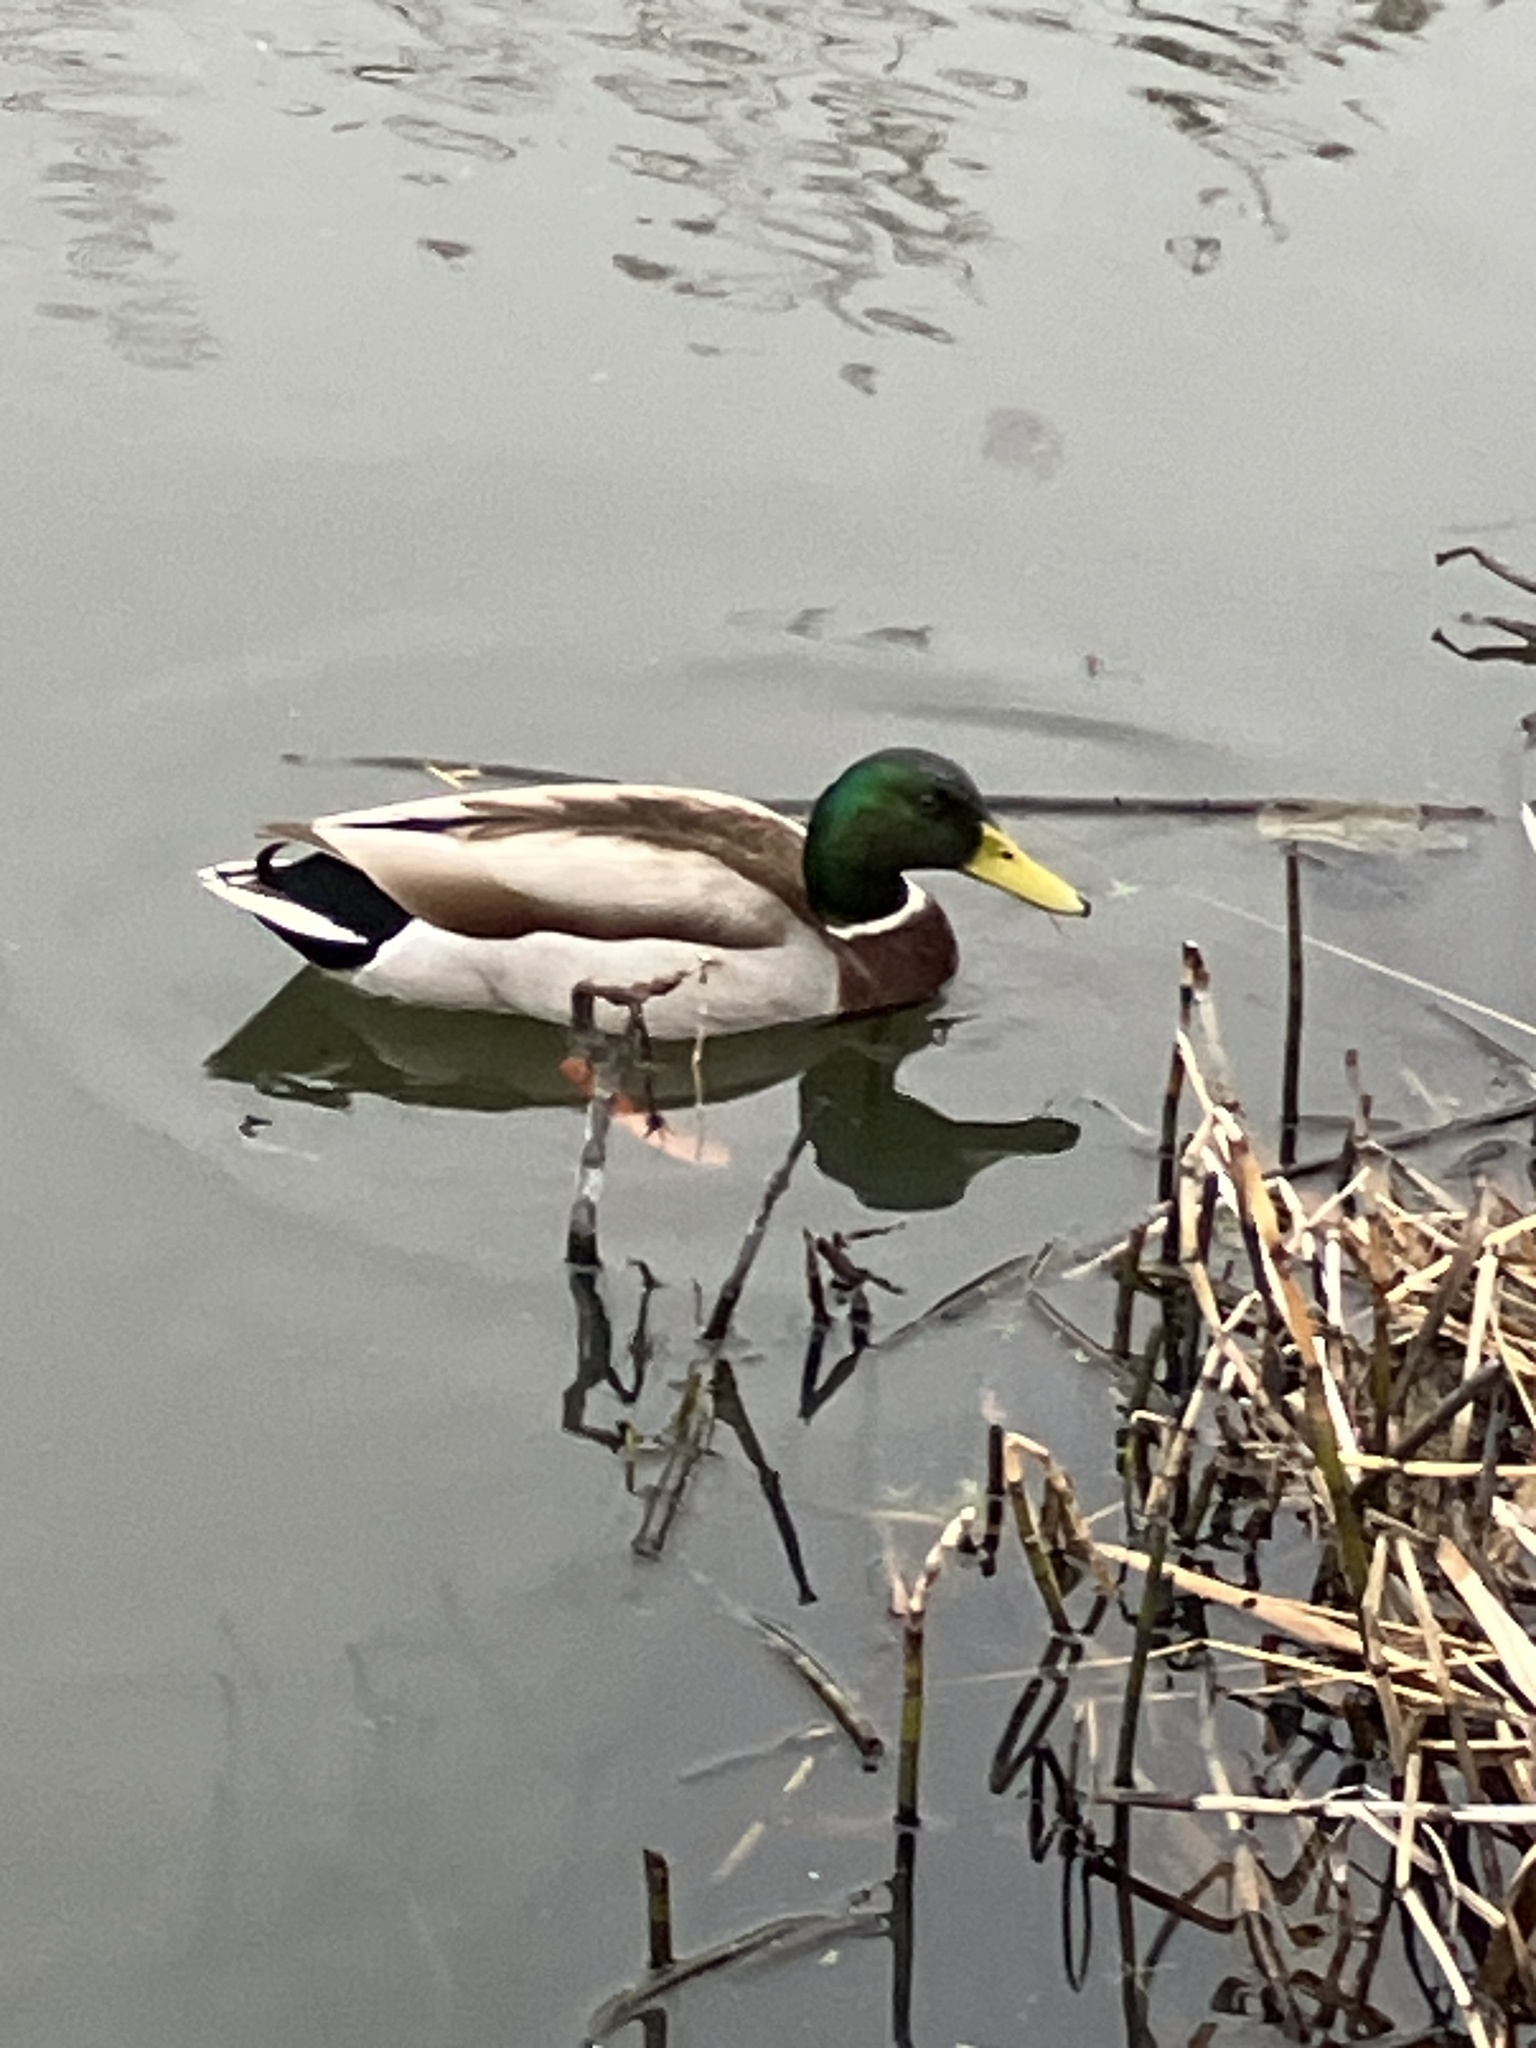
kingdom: Animalia
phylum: Chordata
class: Aves
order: Anseriformes
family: Anatidae
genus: Anas
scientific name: Anas platyrhynchos
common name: Mallard
